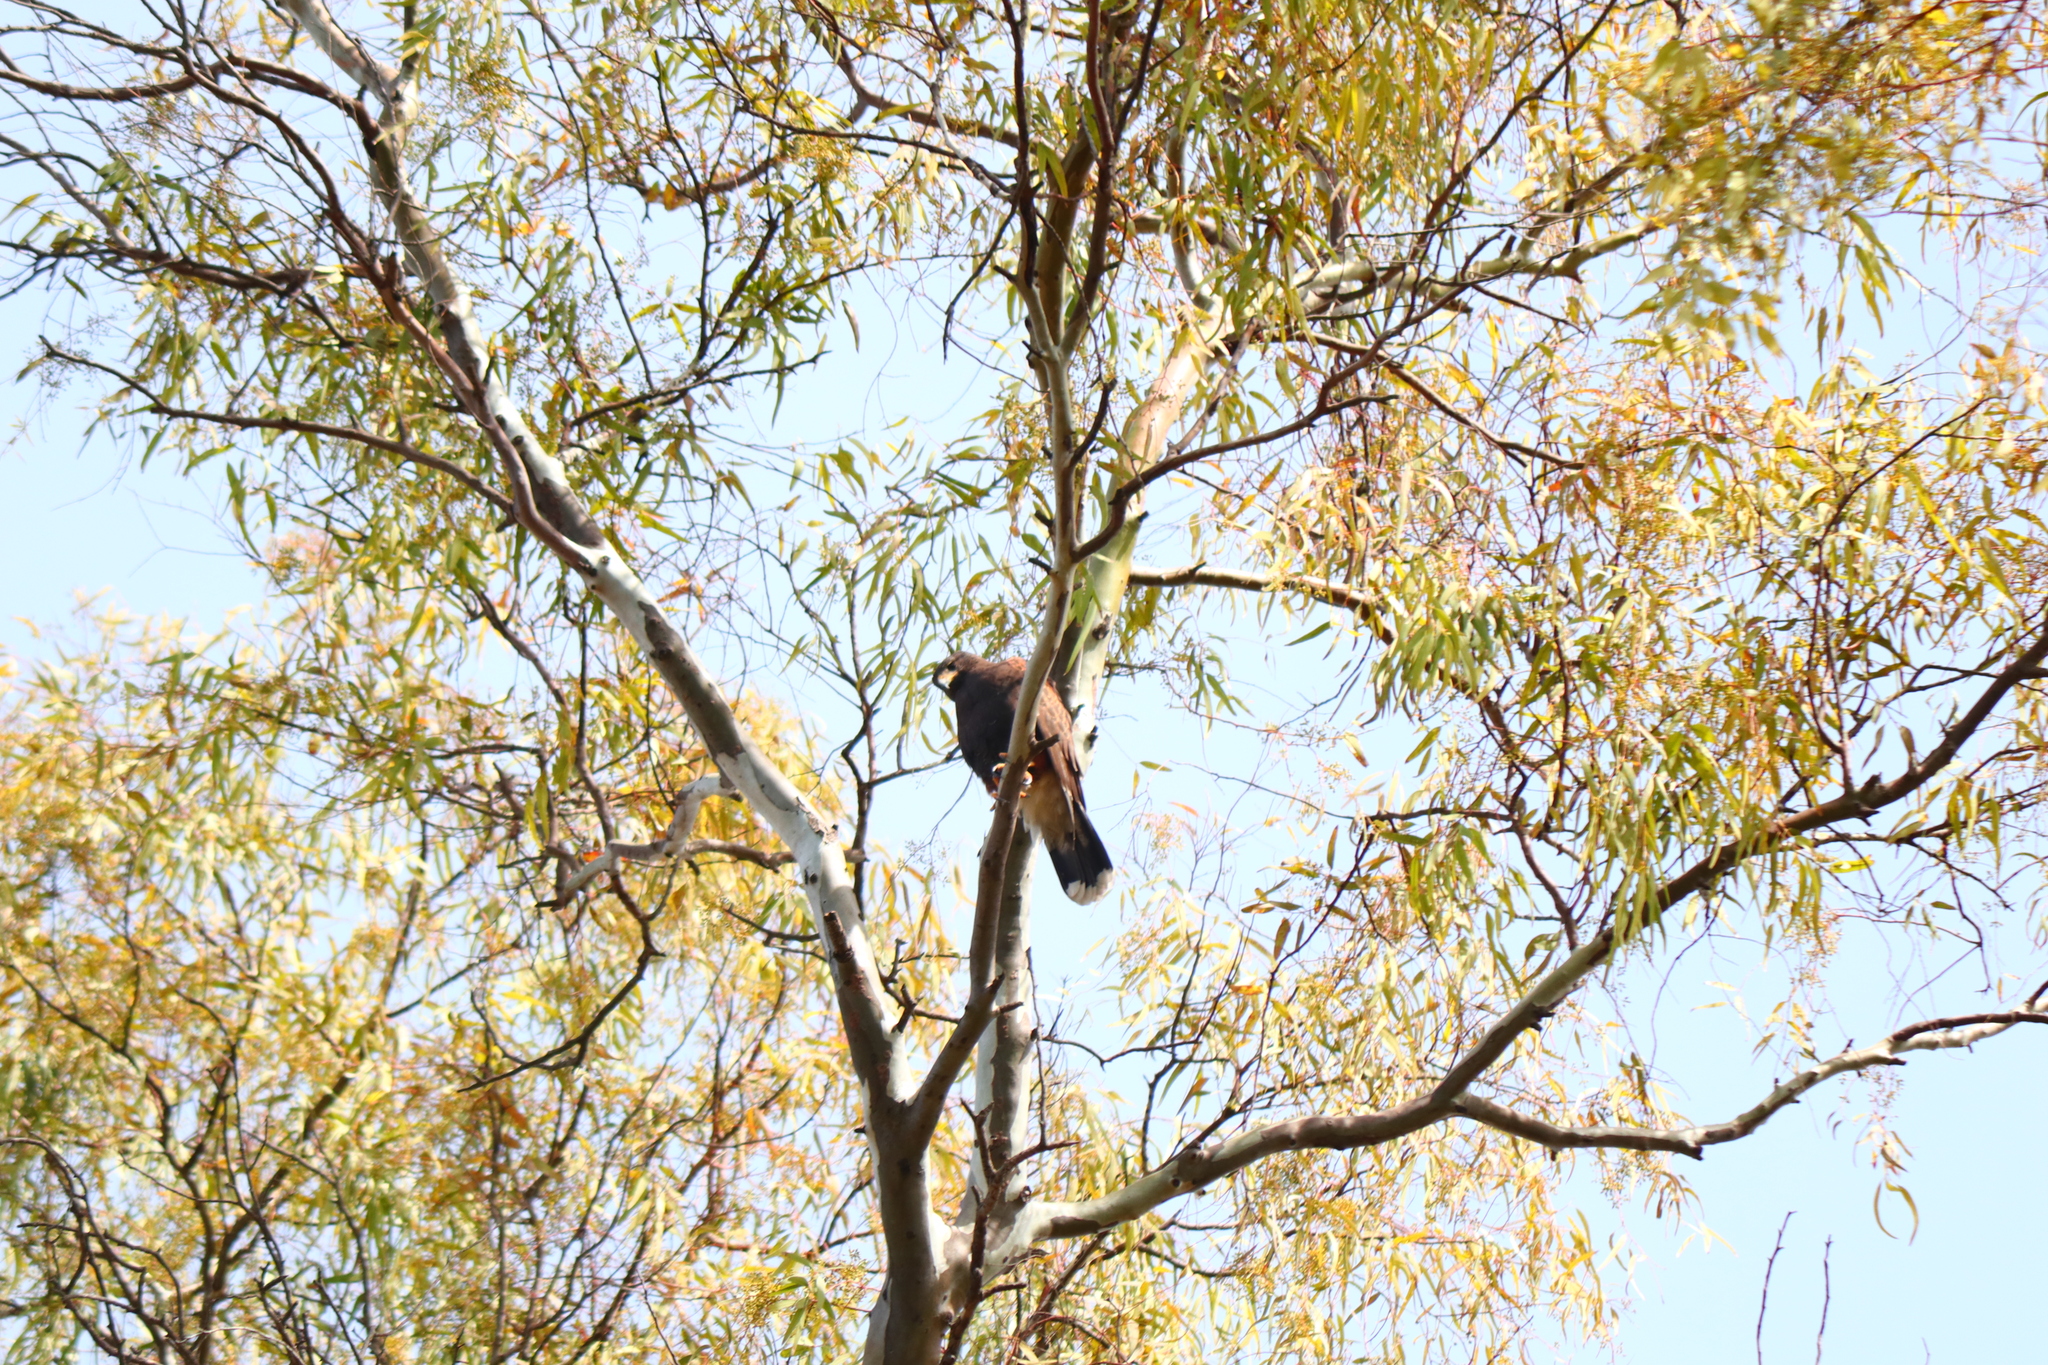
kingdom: Animalia
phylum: Chordata
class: Aves
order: Accipitriformes
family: Accipitridae
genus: Parabuteo
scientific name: Parabuteo unicinctus
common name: Harris's hawk
